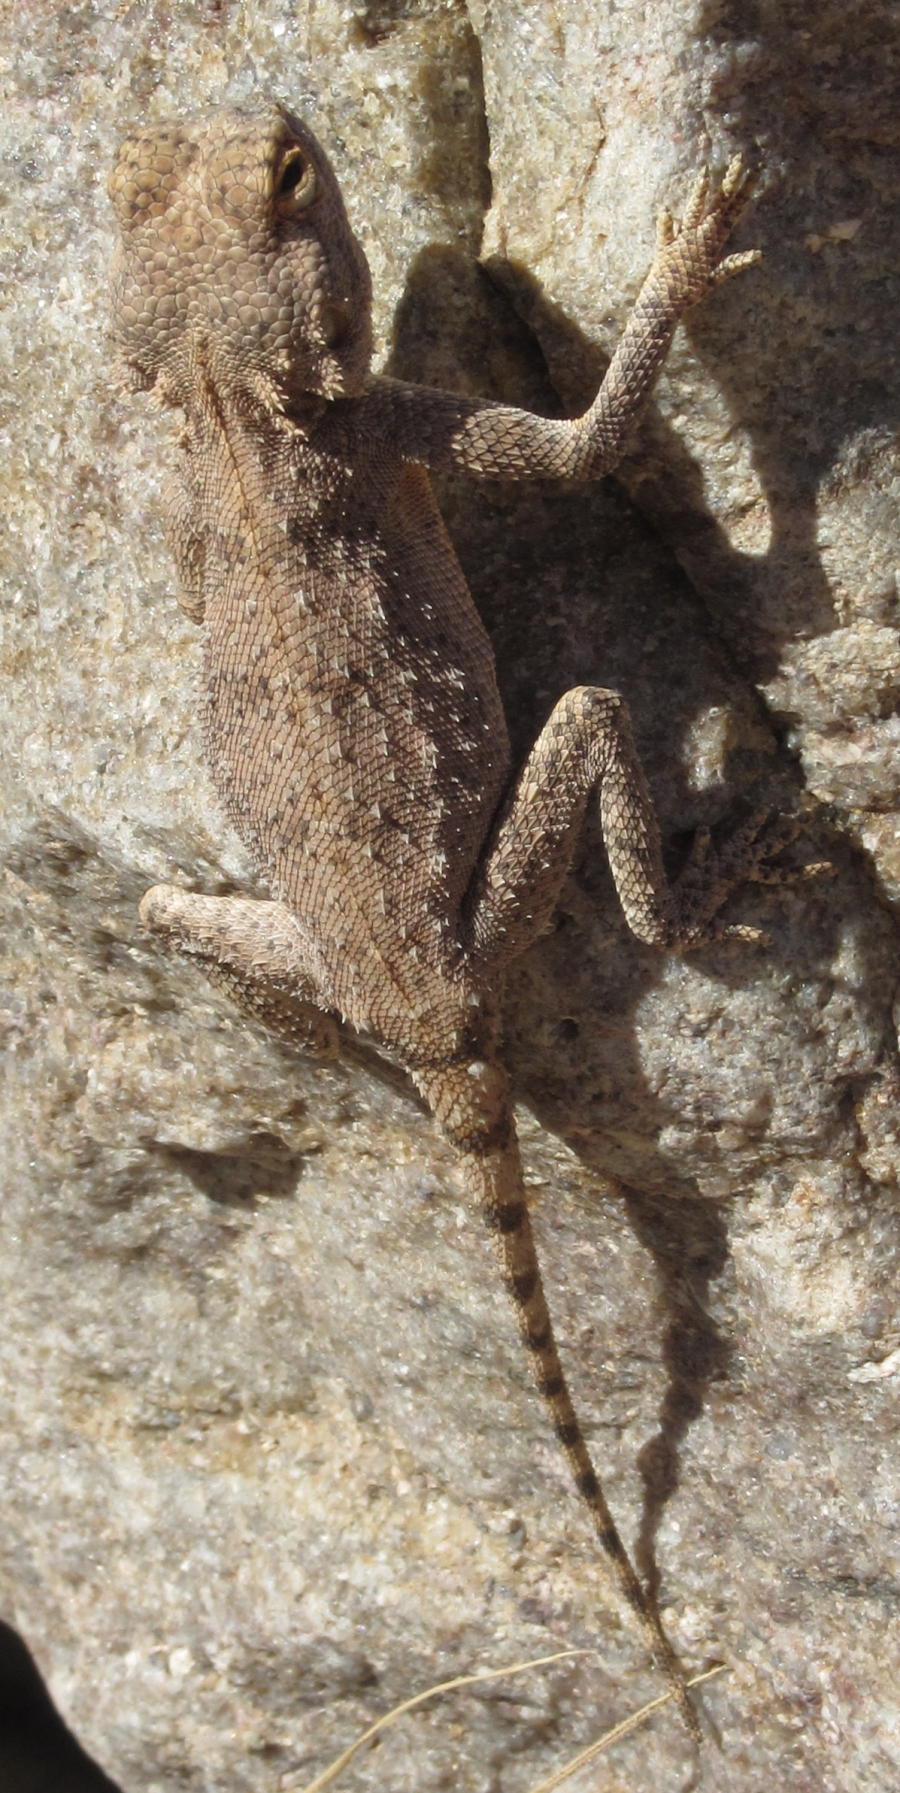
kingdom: Animalia
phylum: Chordata
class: Squamata
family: Agamidae
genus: Agama
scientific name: Agama anchietae
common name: Anchieta's agama
